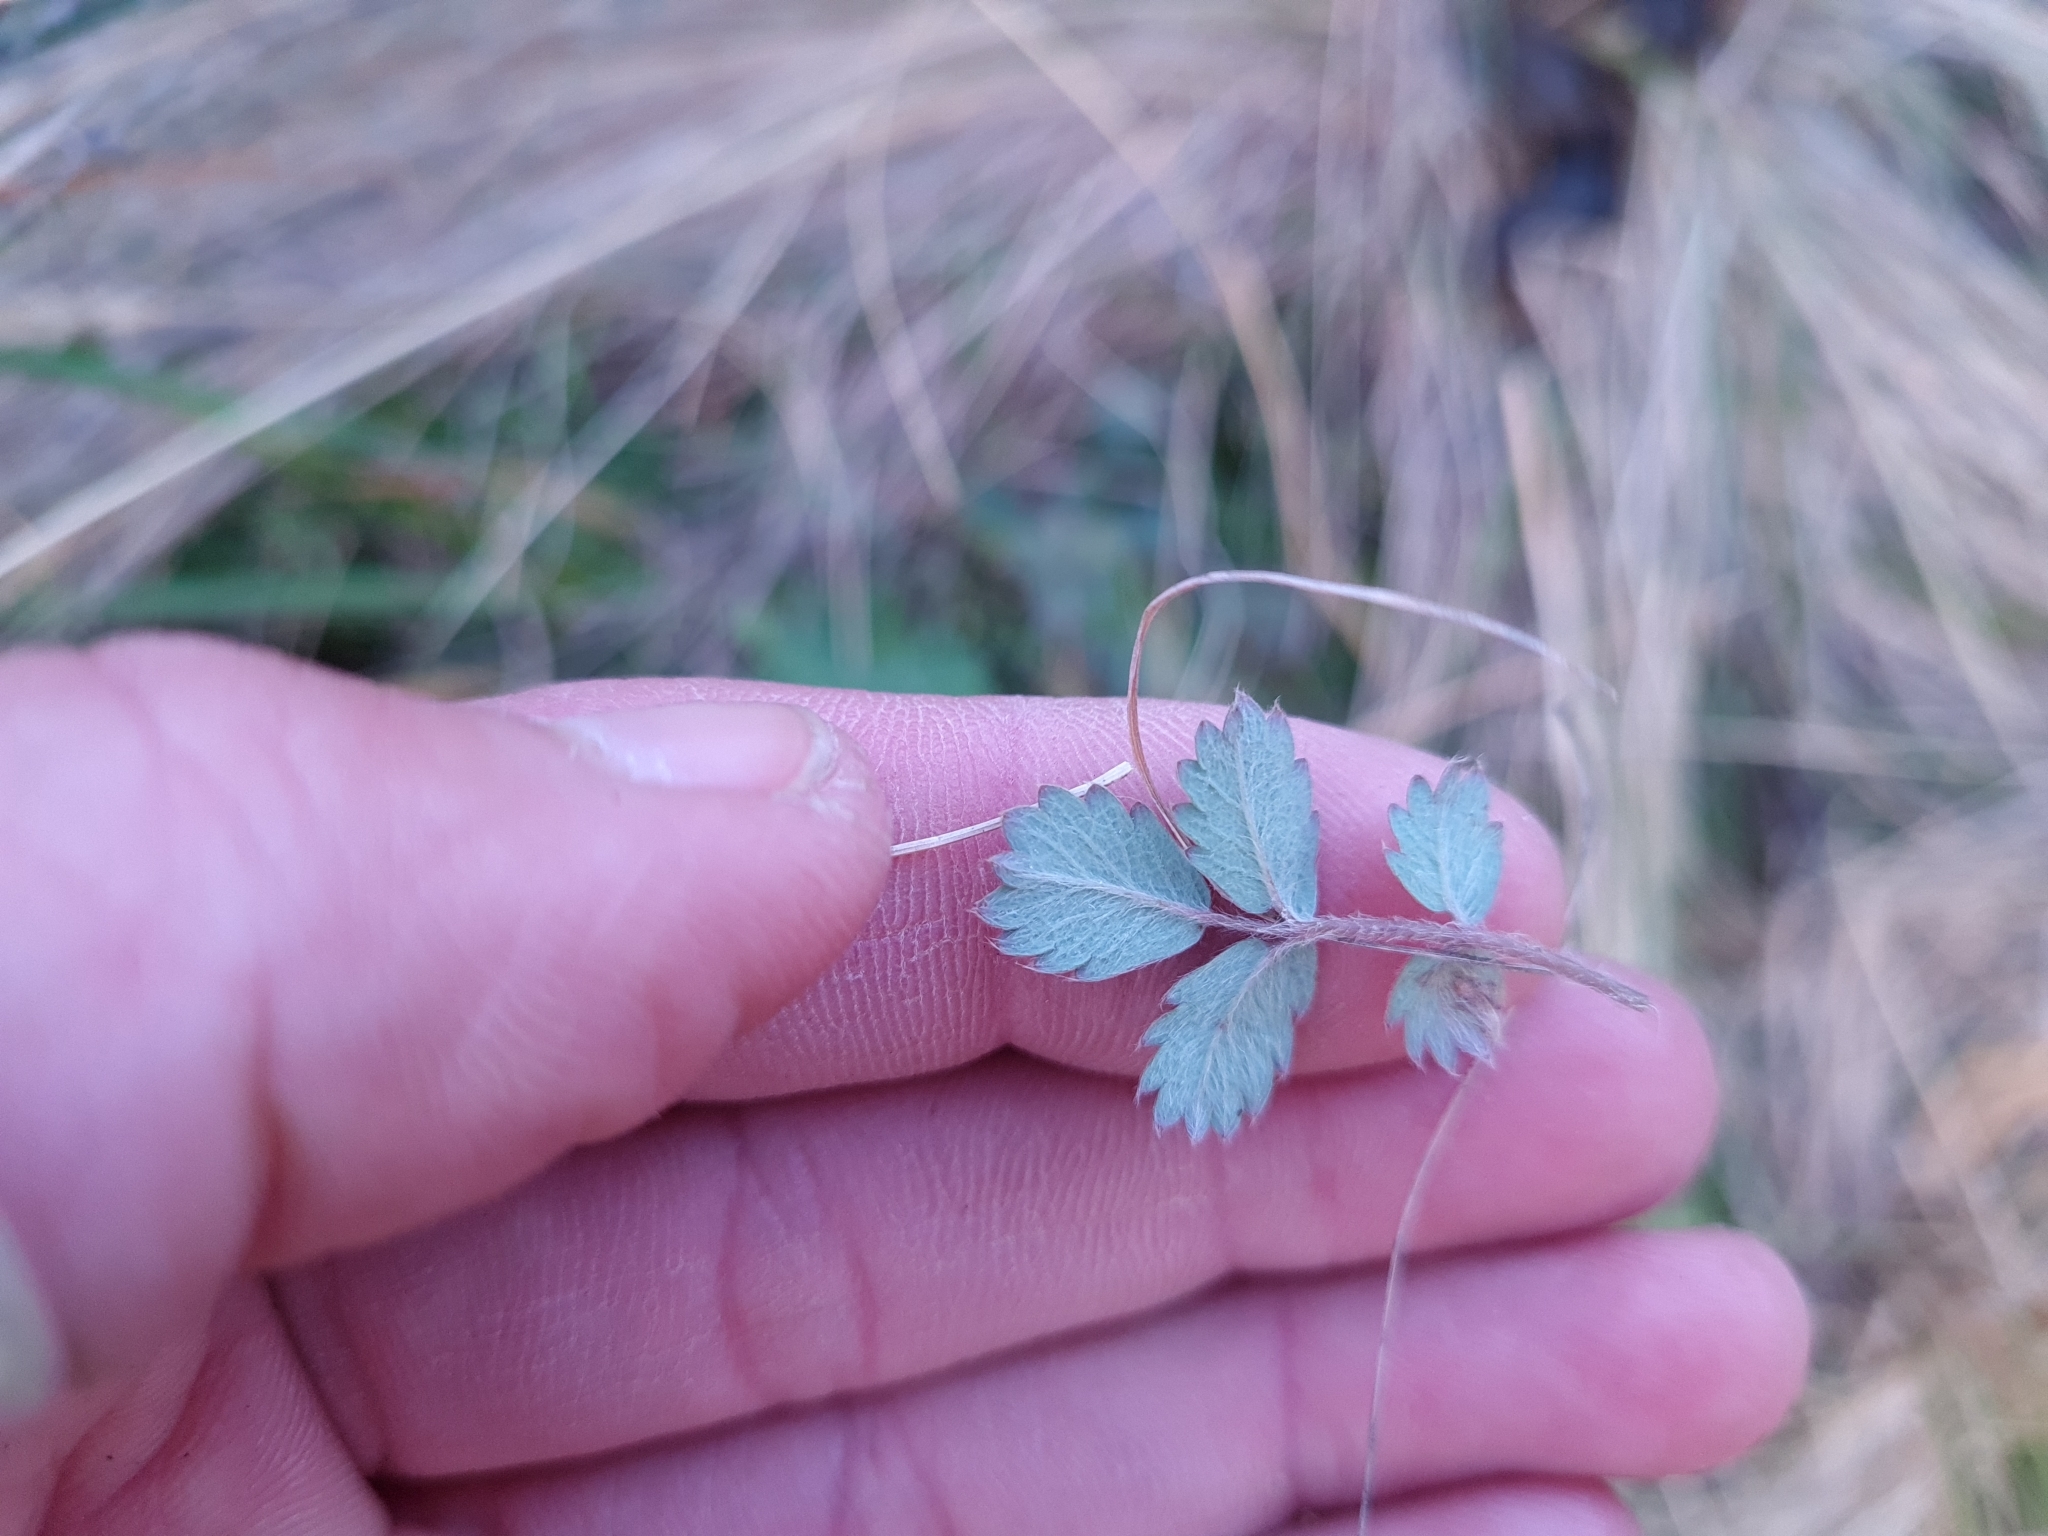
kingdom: Plantae
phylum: Tracheophyta
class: Magnoliopsida
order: Rosales
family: Rosaceae
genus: Acaena
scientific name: Acaena caesiiglauca
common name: Glaucous pirri-pirri-bur
